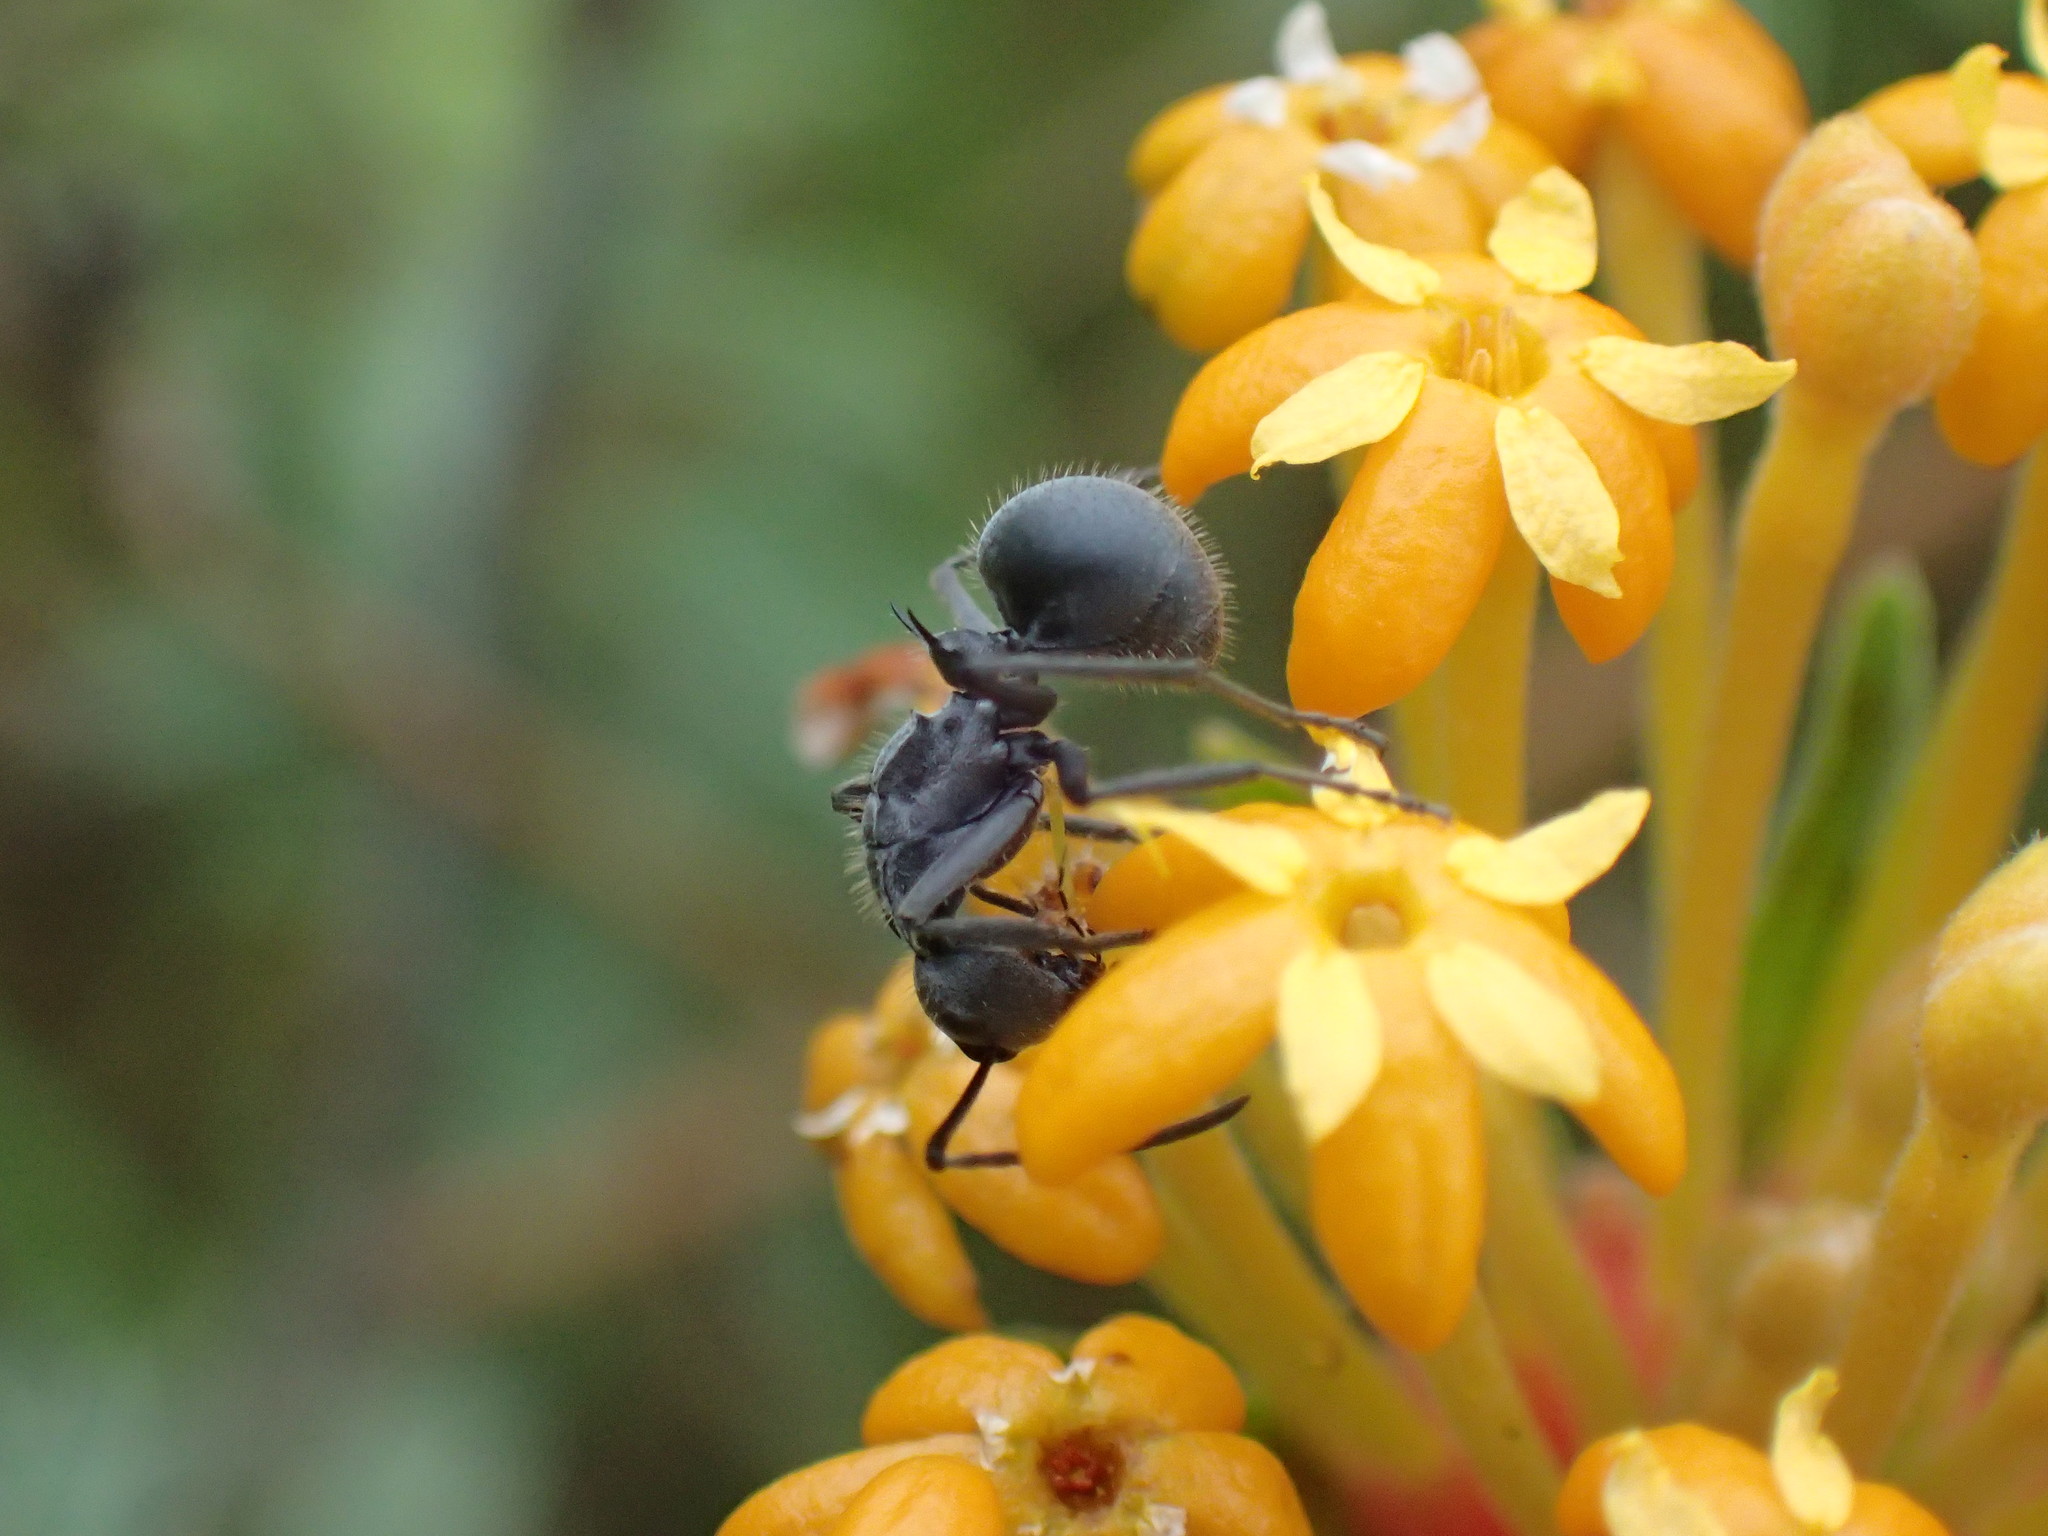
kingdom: Animalia
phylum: Arthropoda
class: Insecta
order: Hymenoptera
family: Formicidae
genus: Polyrhachis
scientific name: Polyrhachis schistacea
